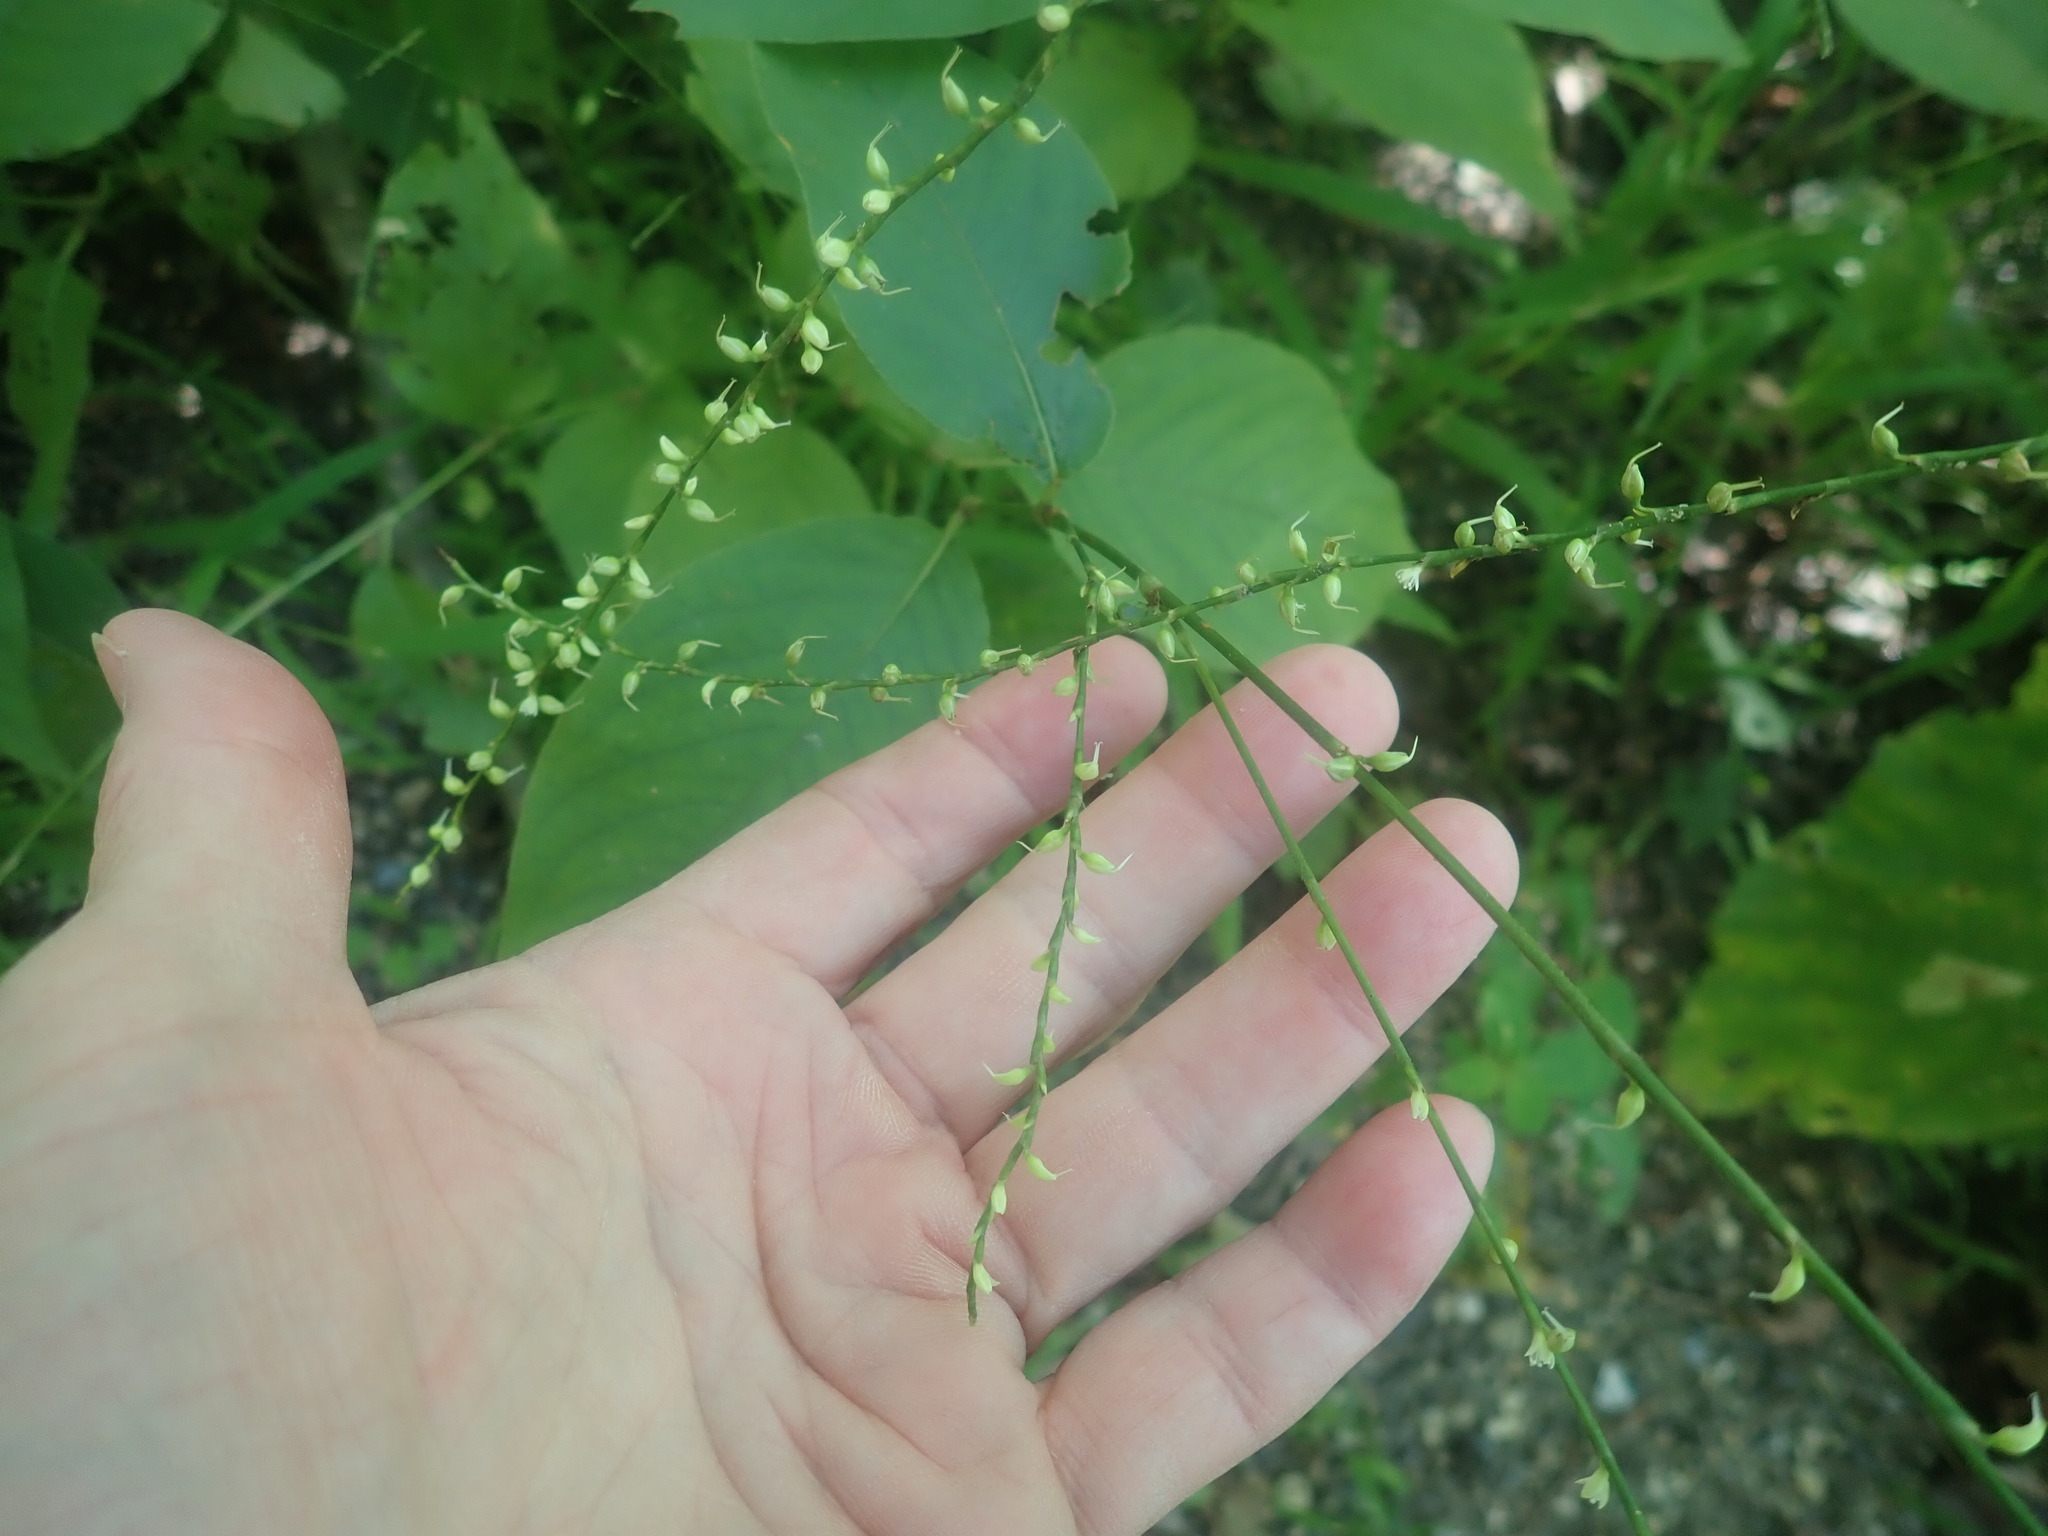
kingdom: Plantae
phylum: Tracheophyta
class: Magnoliopsida
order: Caryophyllales
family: Polygonaceae
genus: Persicaria
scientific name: Persicaria virginiana
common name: Jumpseed
